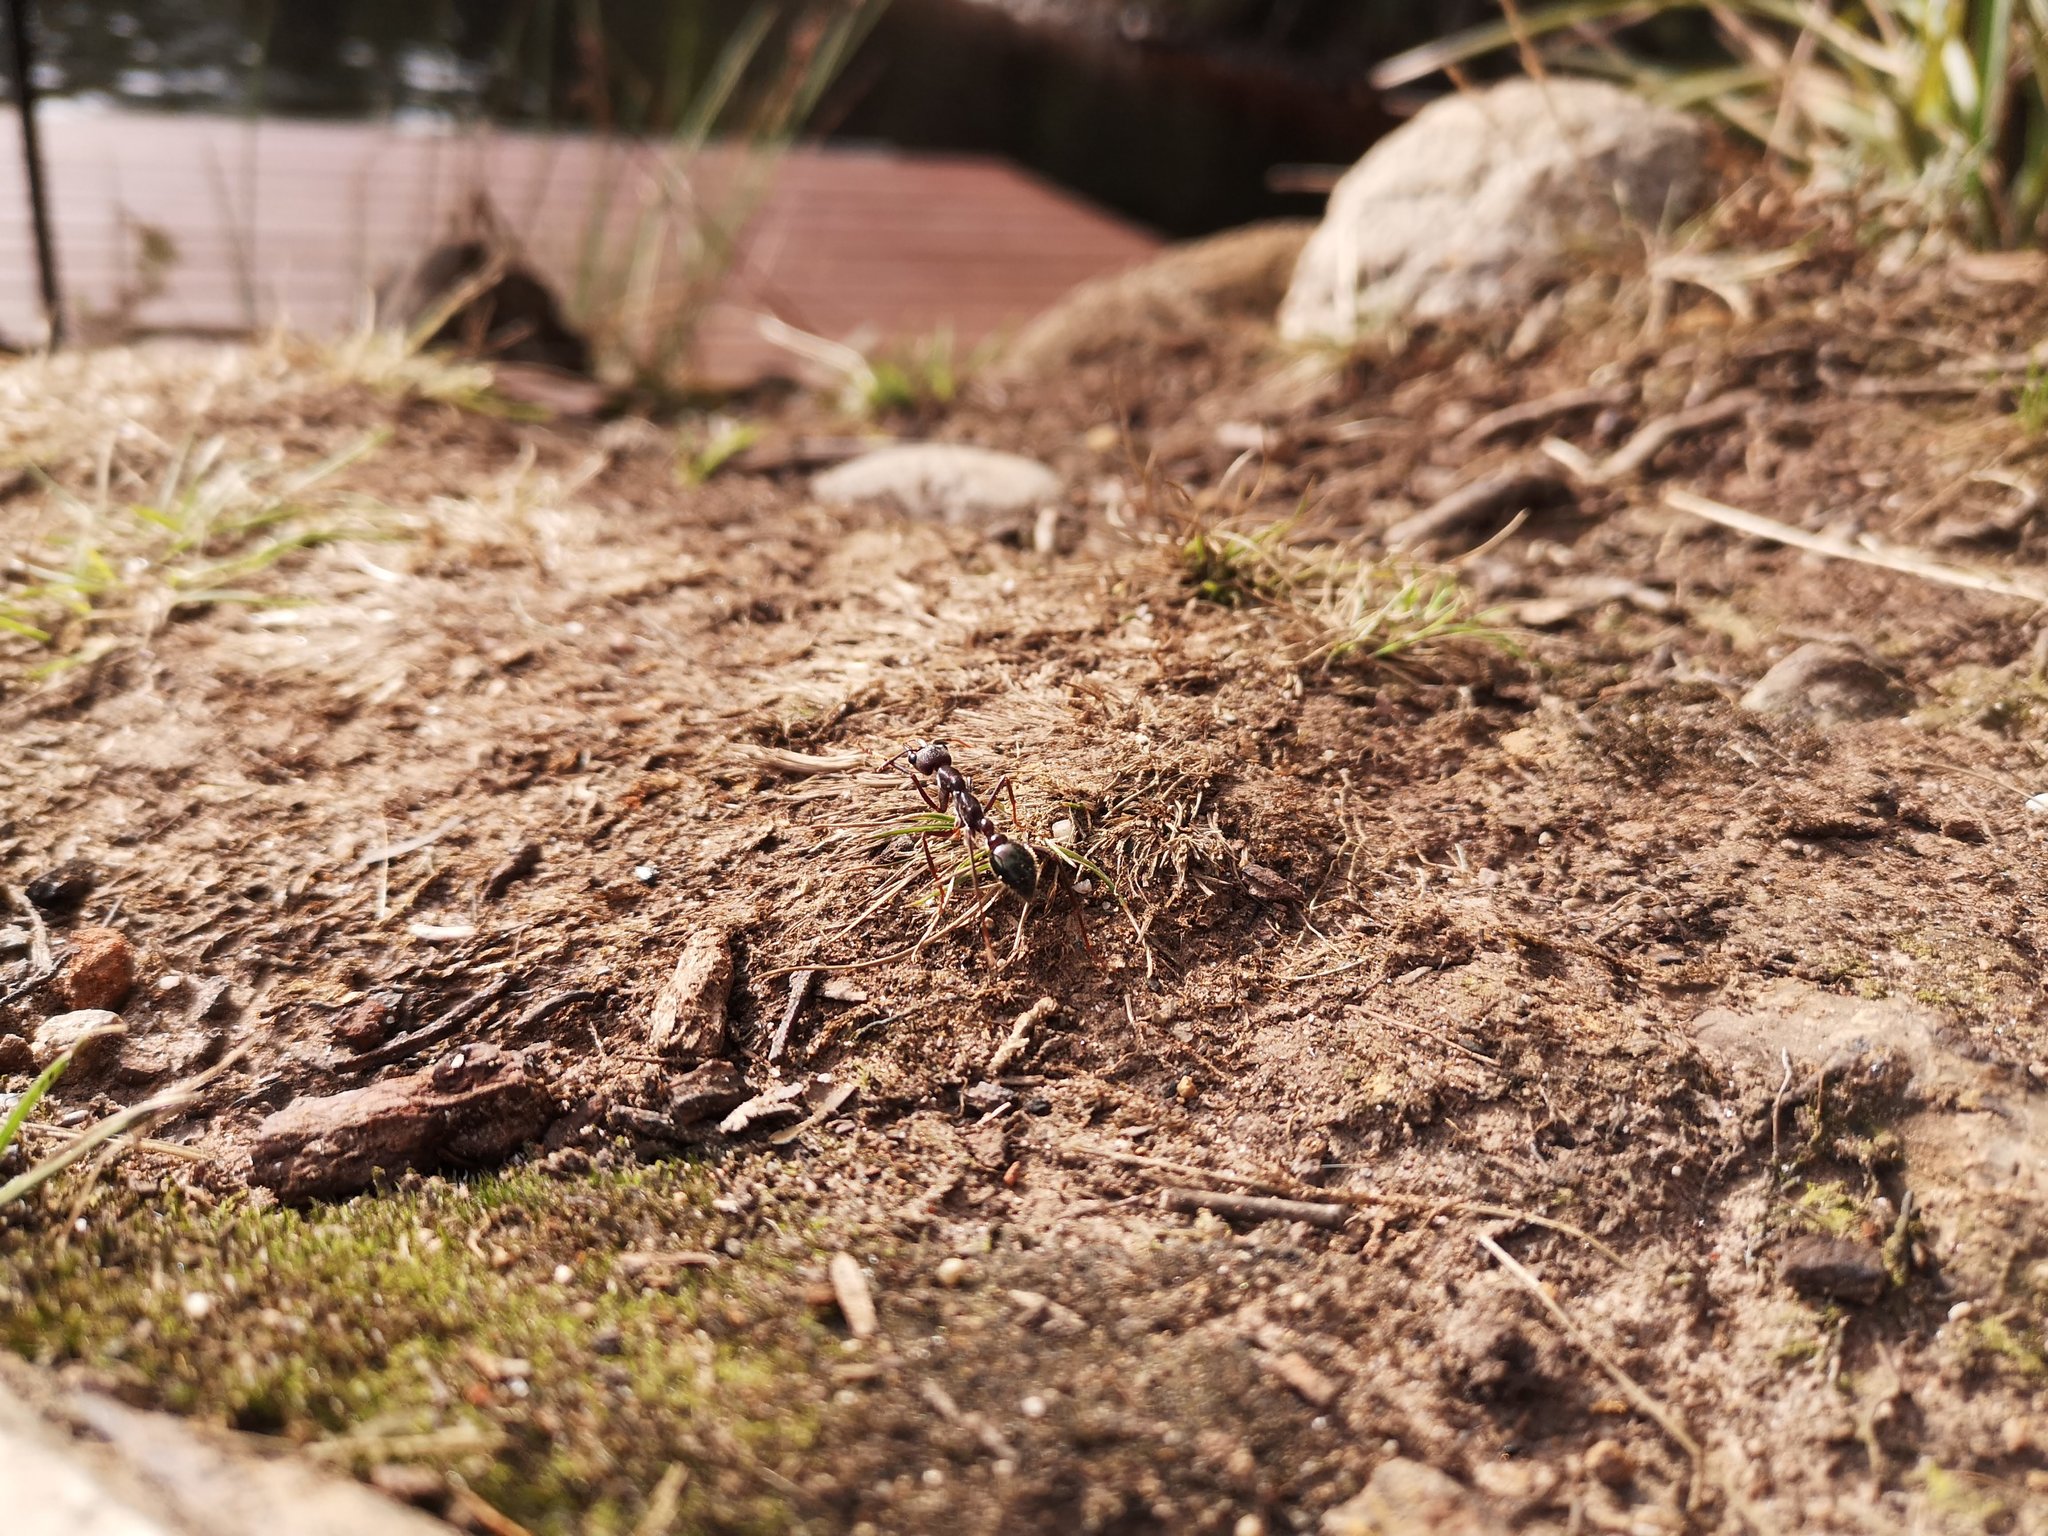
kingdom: Animalia
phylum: Arthropoda
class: Insecta
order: Hymenoptera
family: Formicidae
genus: Myrmecia
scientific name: Myrmecia forficata
